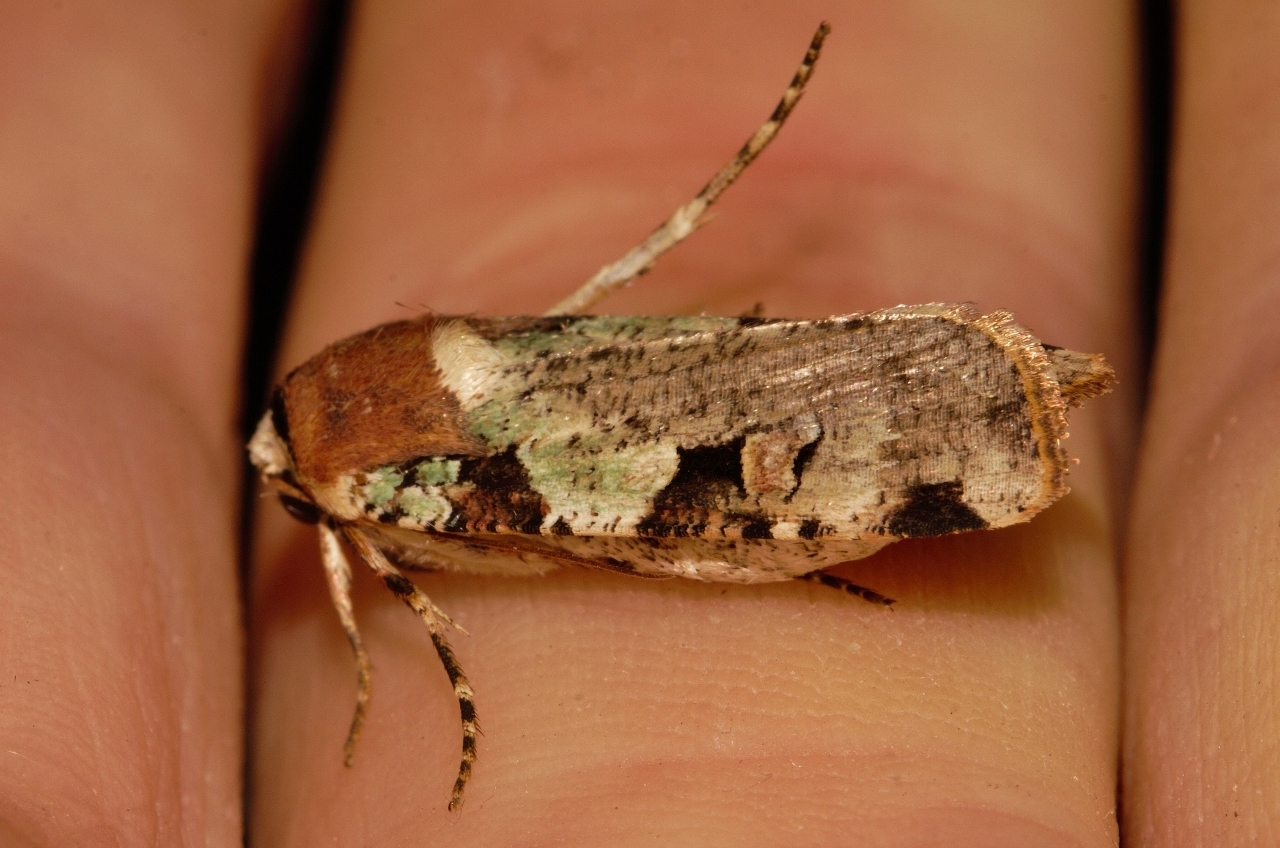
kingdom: Animalia
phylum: Arthropoda
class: Insecta
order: Lepidoptera
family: Noctuidae
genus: Mentaxya
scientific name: Mentaxya ignicollis
